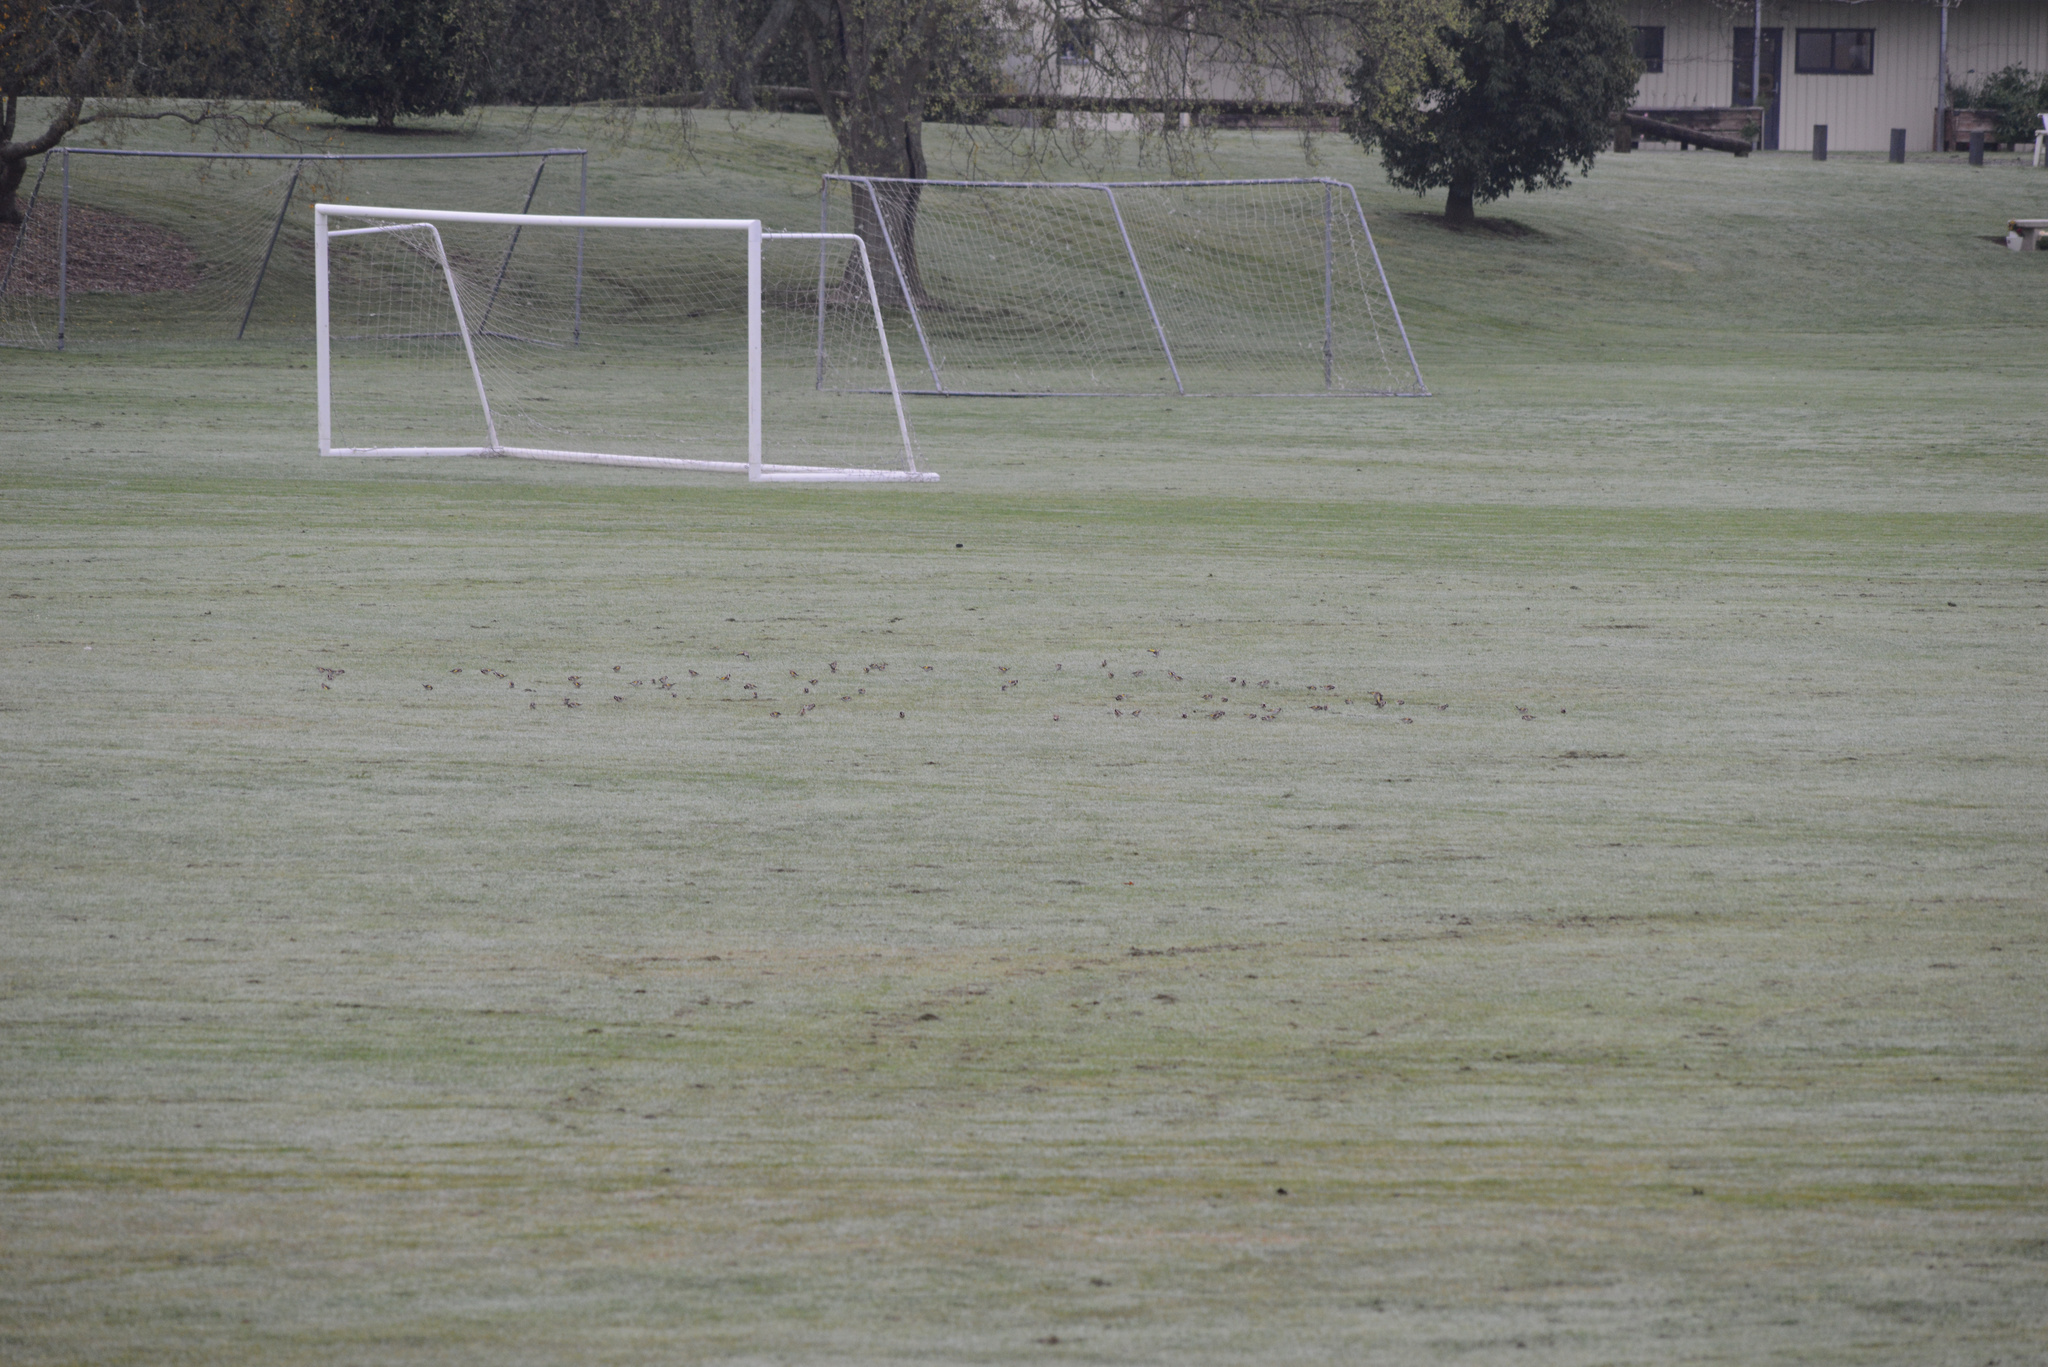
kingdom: Animalia
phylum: Chordata
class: Aves
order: Passeriformes
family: Fringillidae
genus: Carduelis
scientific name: Carduelis carduelis
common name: European goldfinch
